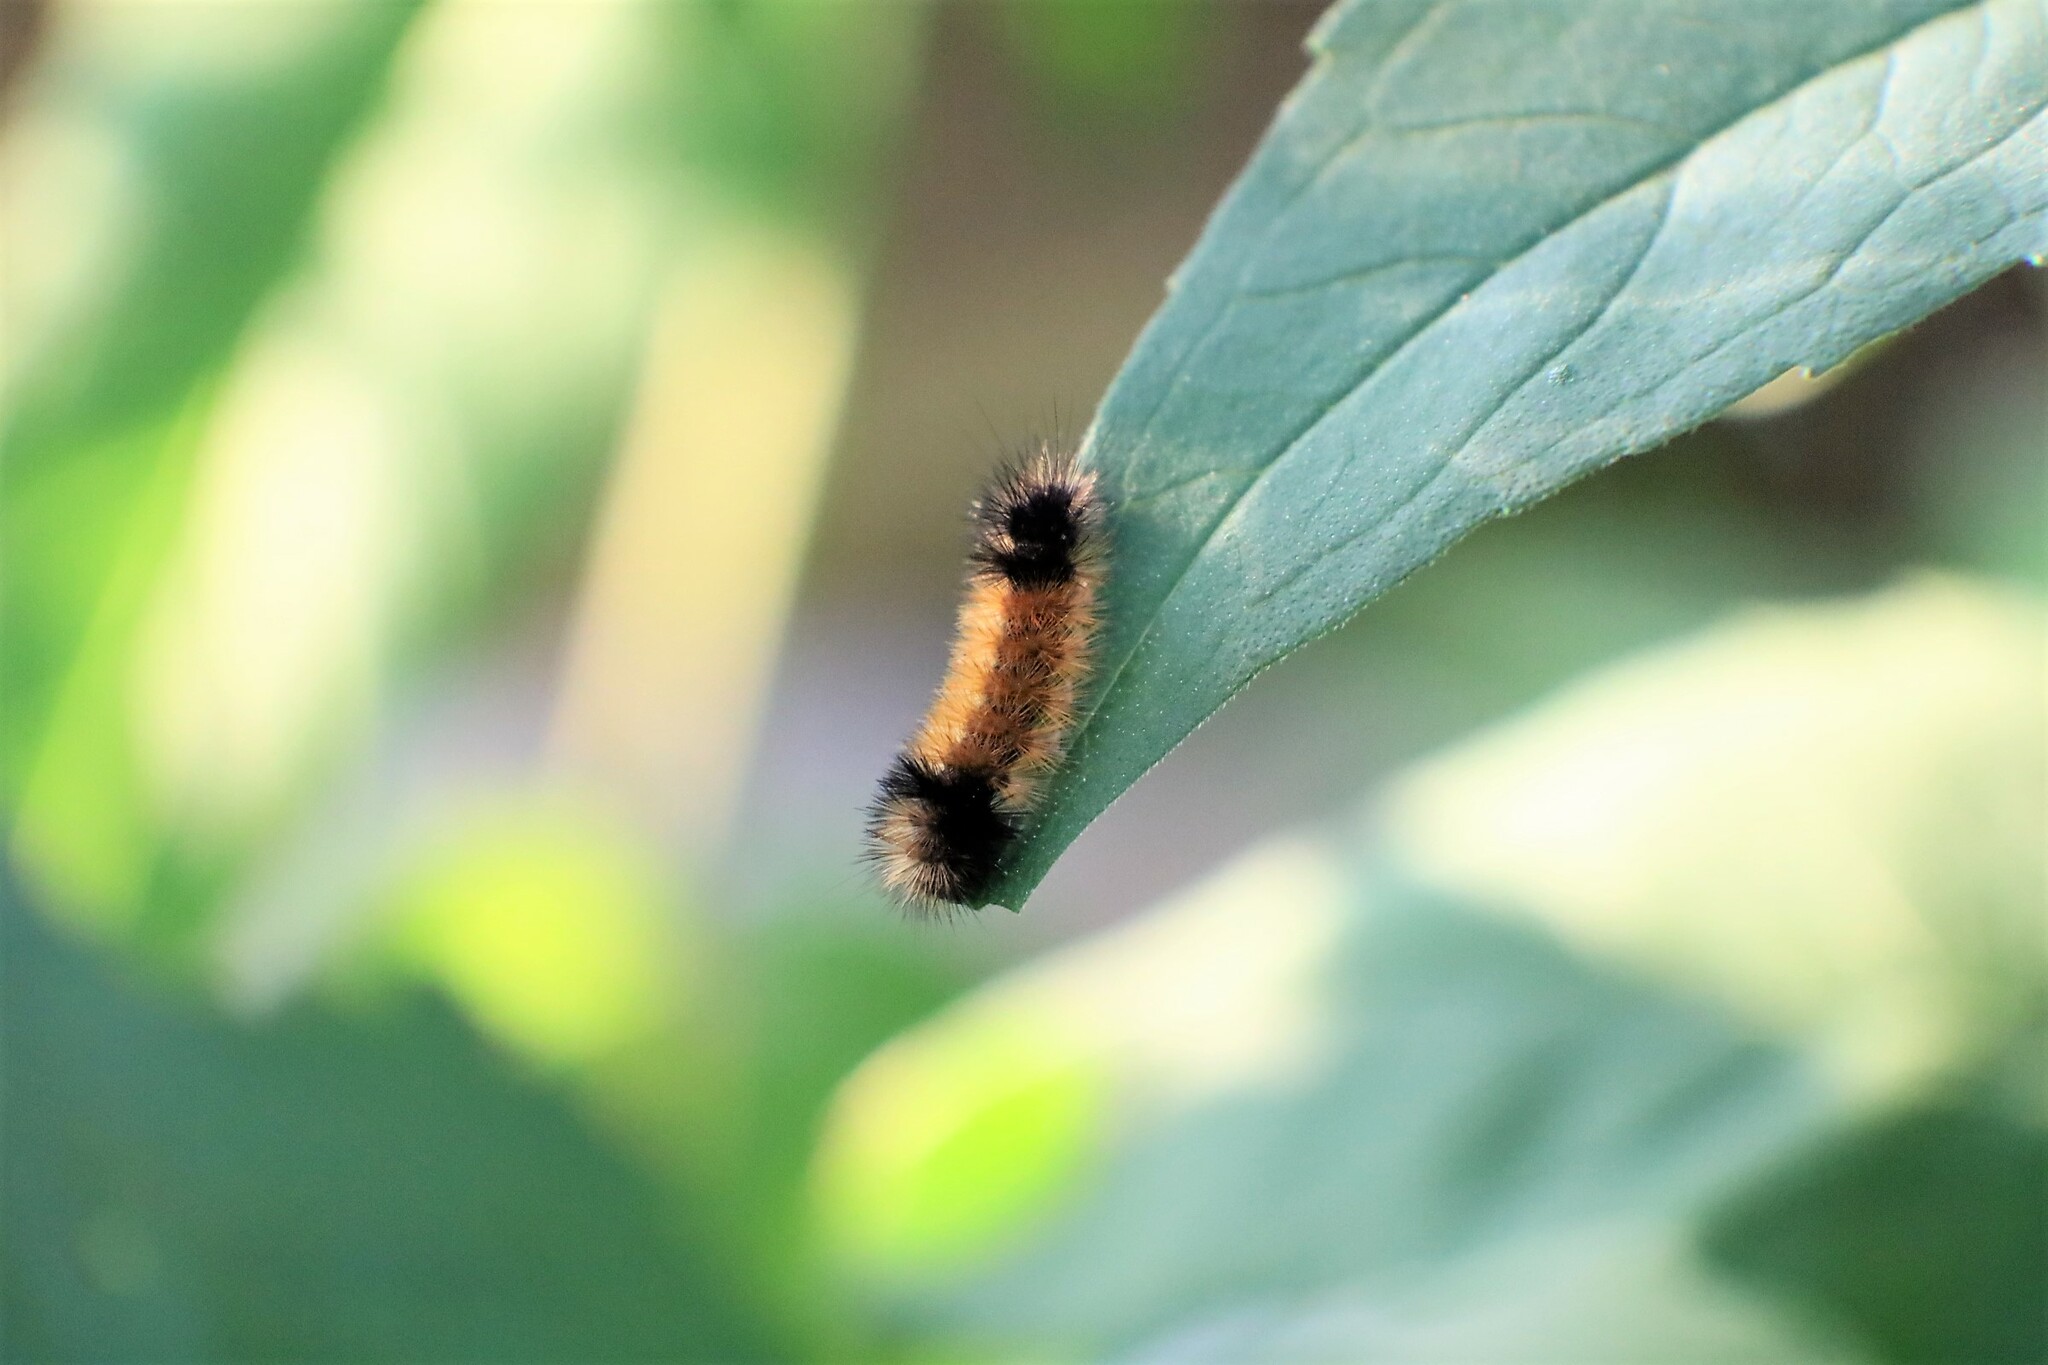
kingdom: Animalia
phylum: Arthropoda
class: Insecta
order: Lepidoptera
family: Erebidae
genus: Pyrrharctia
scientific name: Pyrrharctia isabella
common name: Isabella tiger moth
